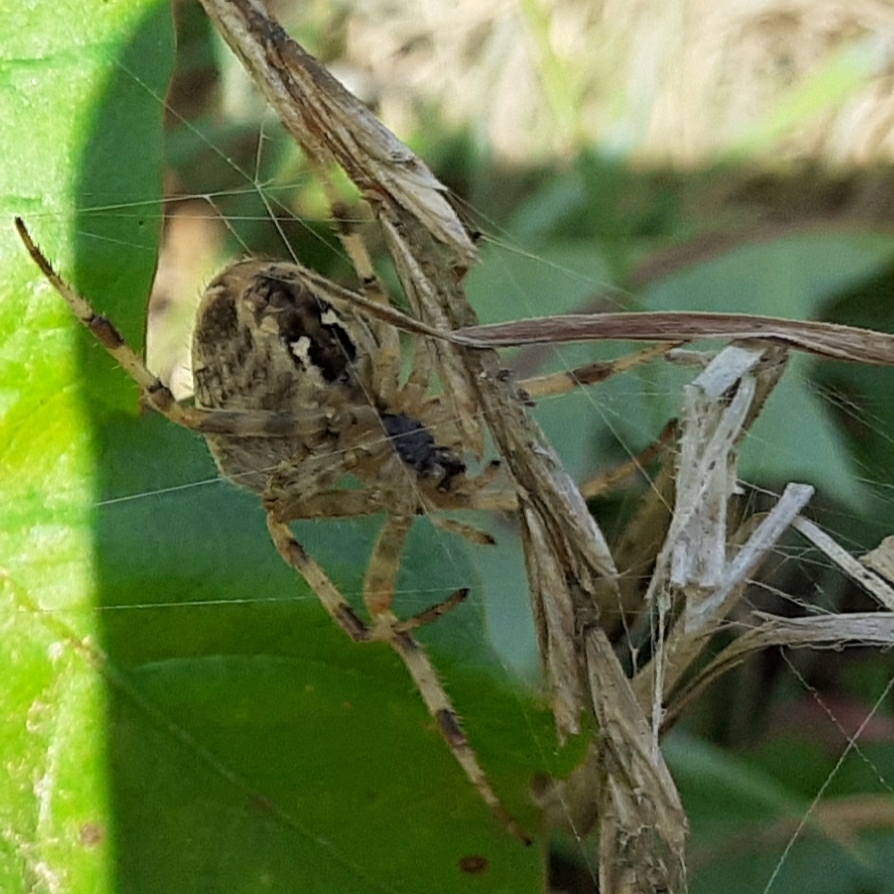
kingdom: Animalia
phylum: Arthropoda
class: Arachnida
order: Araneae
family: Araneidae
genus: Araneus
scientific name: Araneus diadematus
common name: Cross orbweaver
